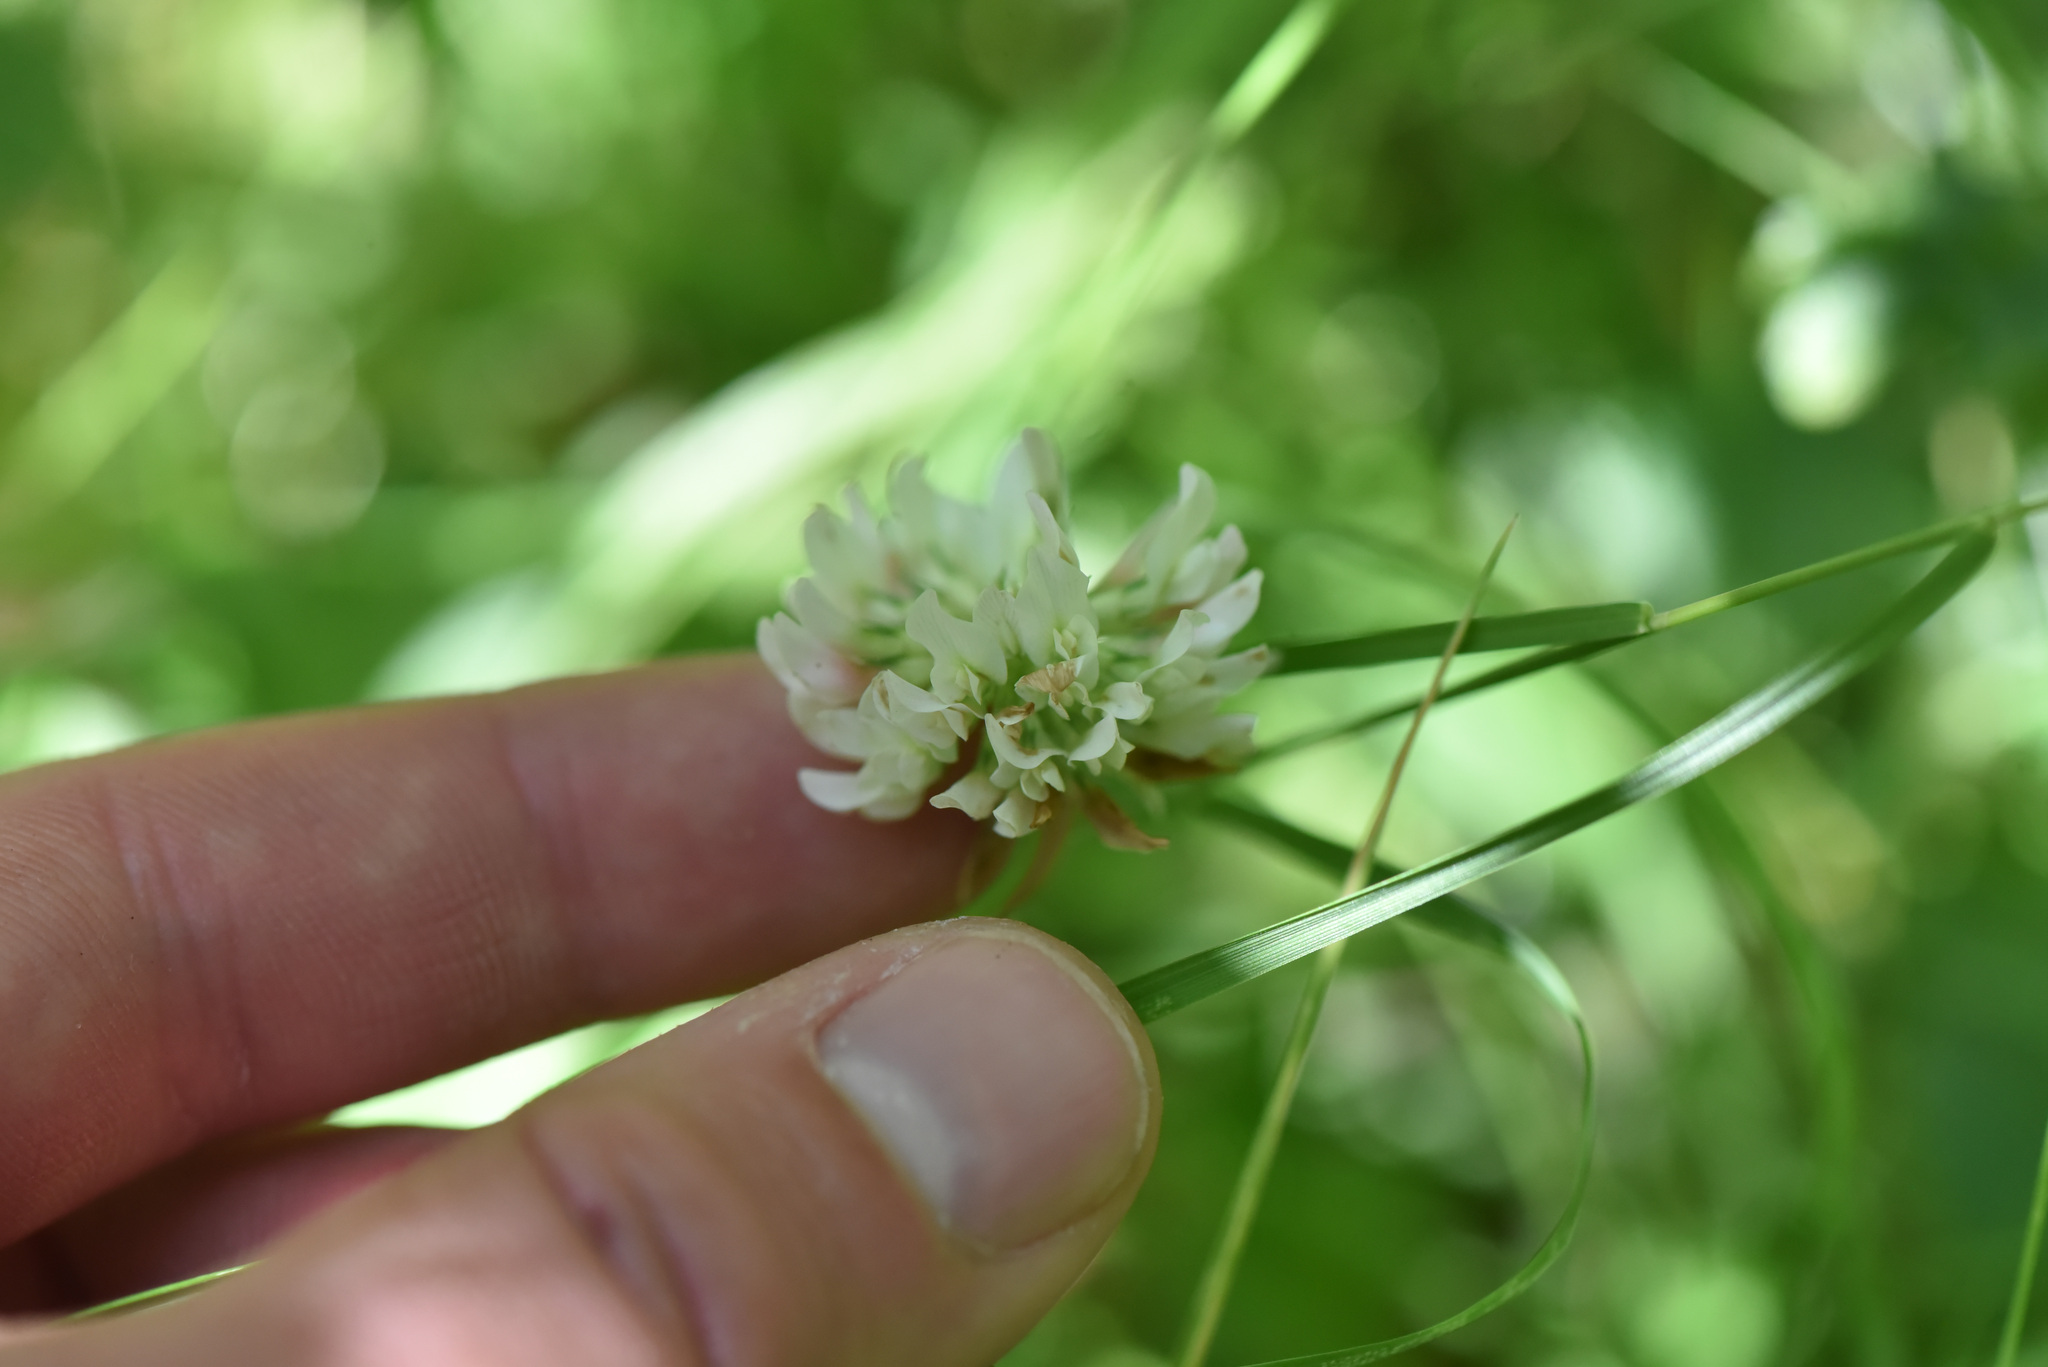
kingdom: Plantae
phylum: Tracheophyta
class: Magnoliopsida
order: Fabales
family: Fabaceae
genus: Trifolium
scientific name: Trifolium repens
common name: White clover
